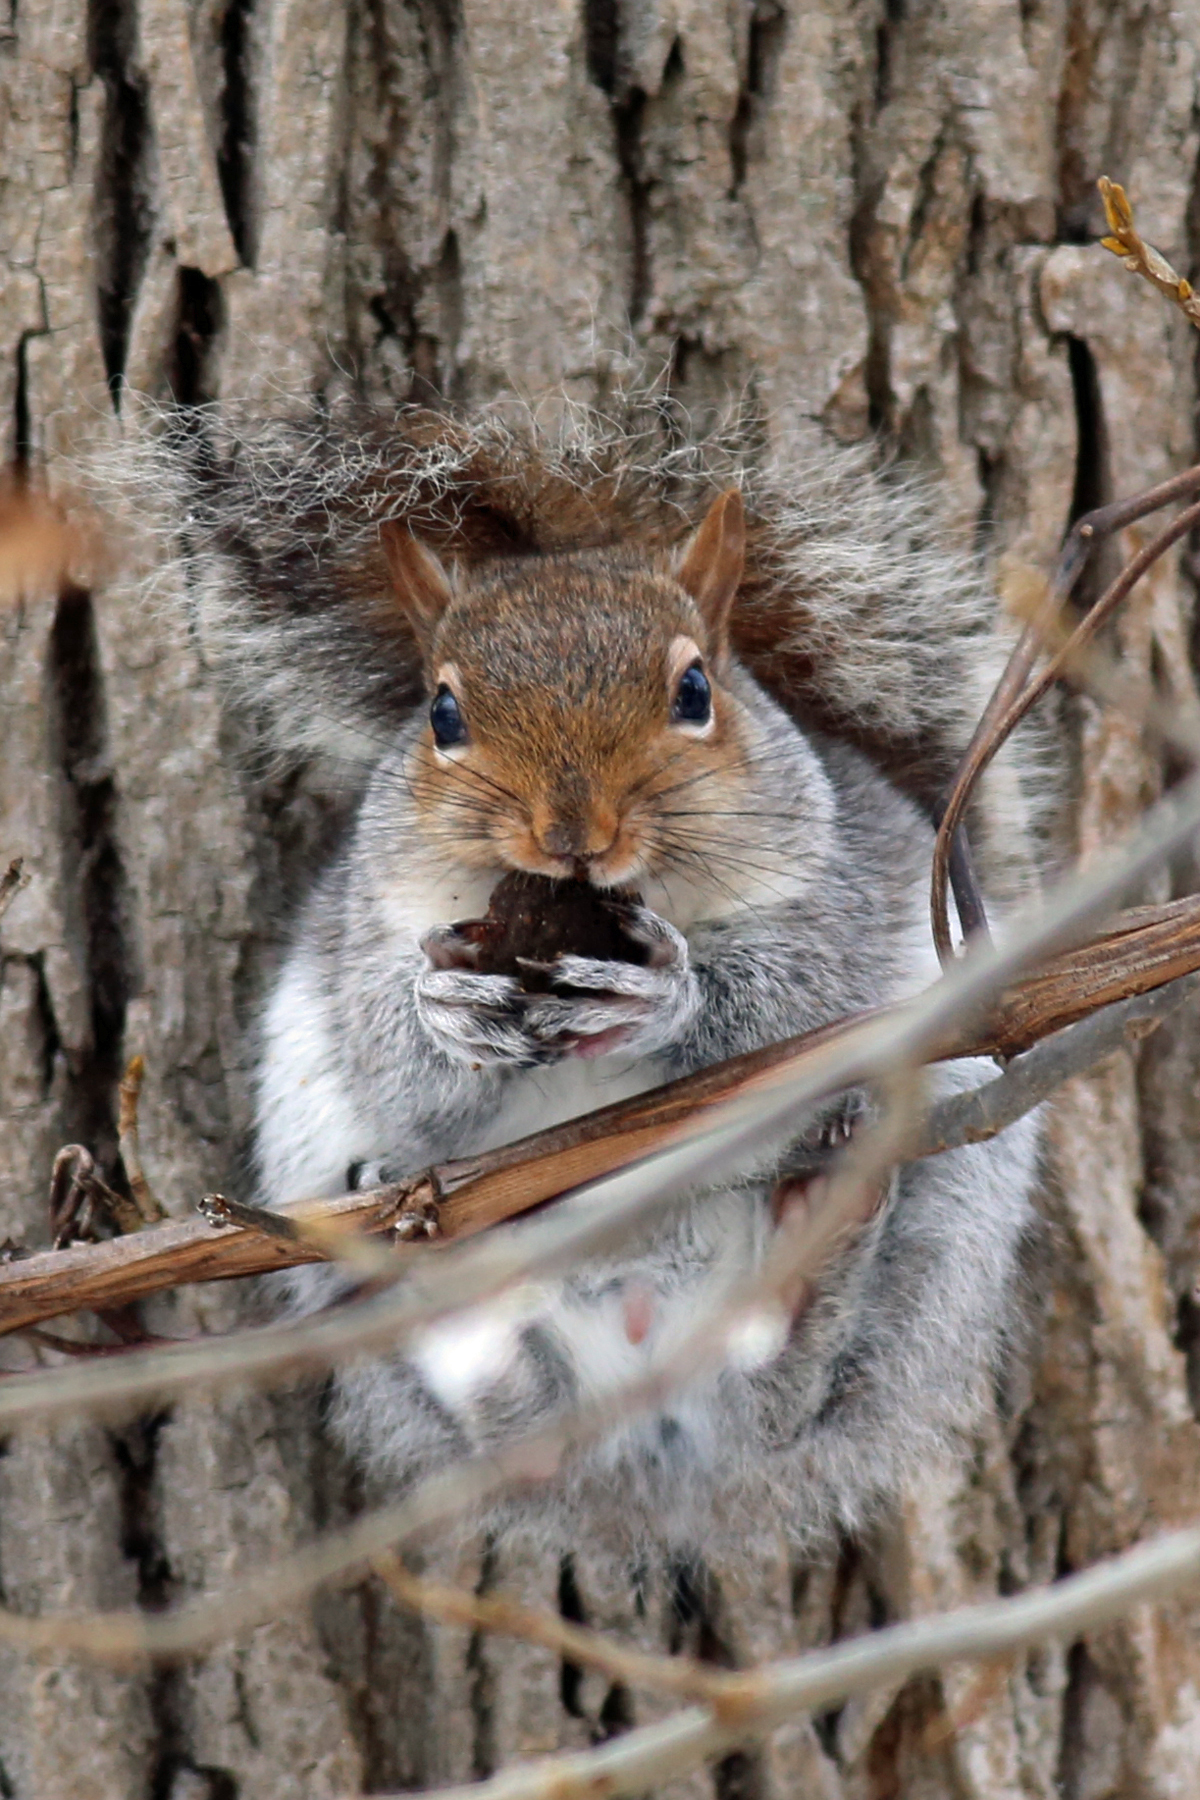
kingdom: Animalia
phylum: Chordata
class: Mammalia
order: Rodentia
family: Sciuridae
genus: Sciurus
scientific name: Sciurus carolinensis
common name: Eastern gray squirrel
